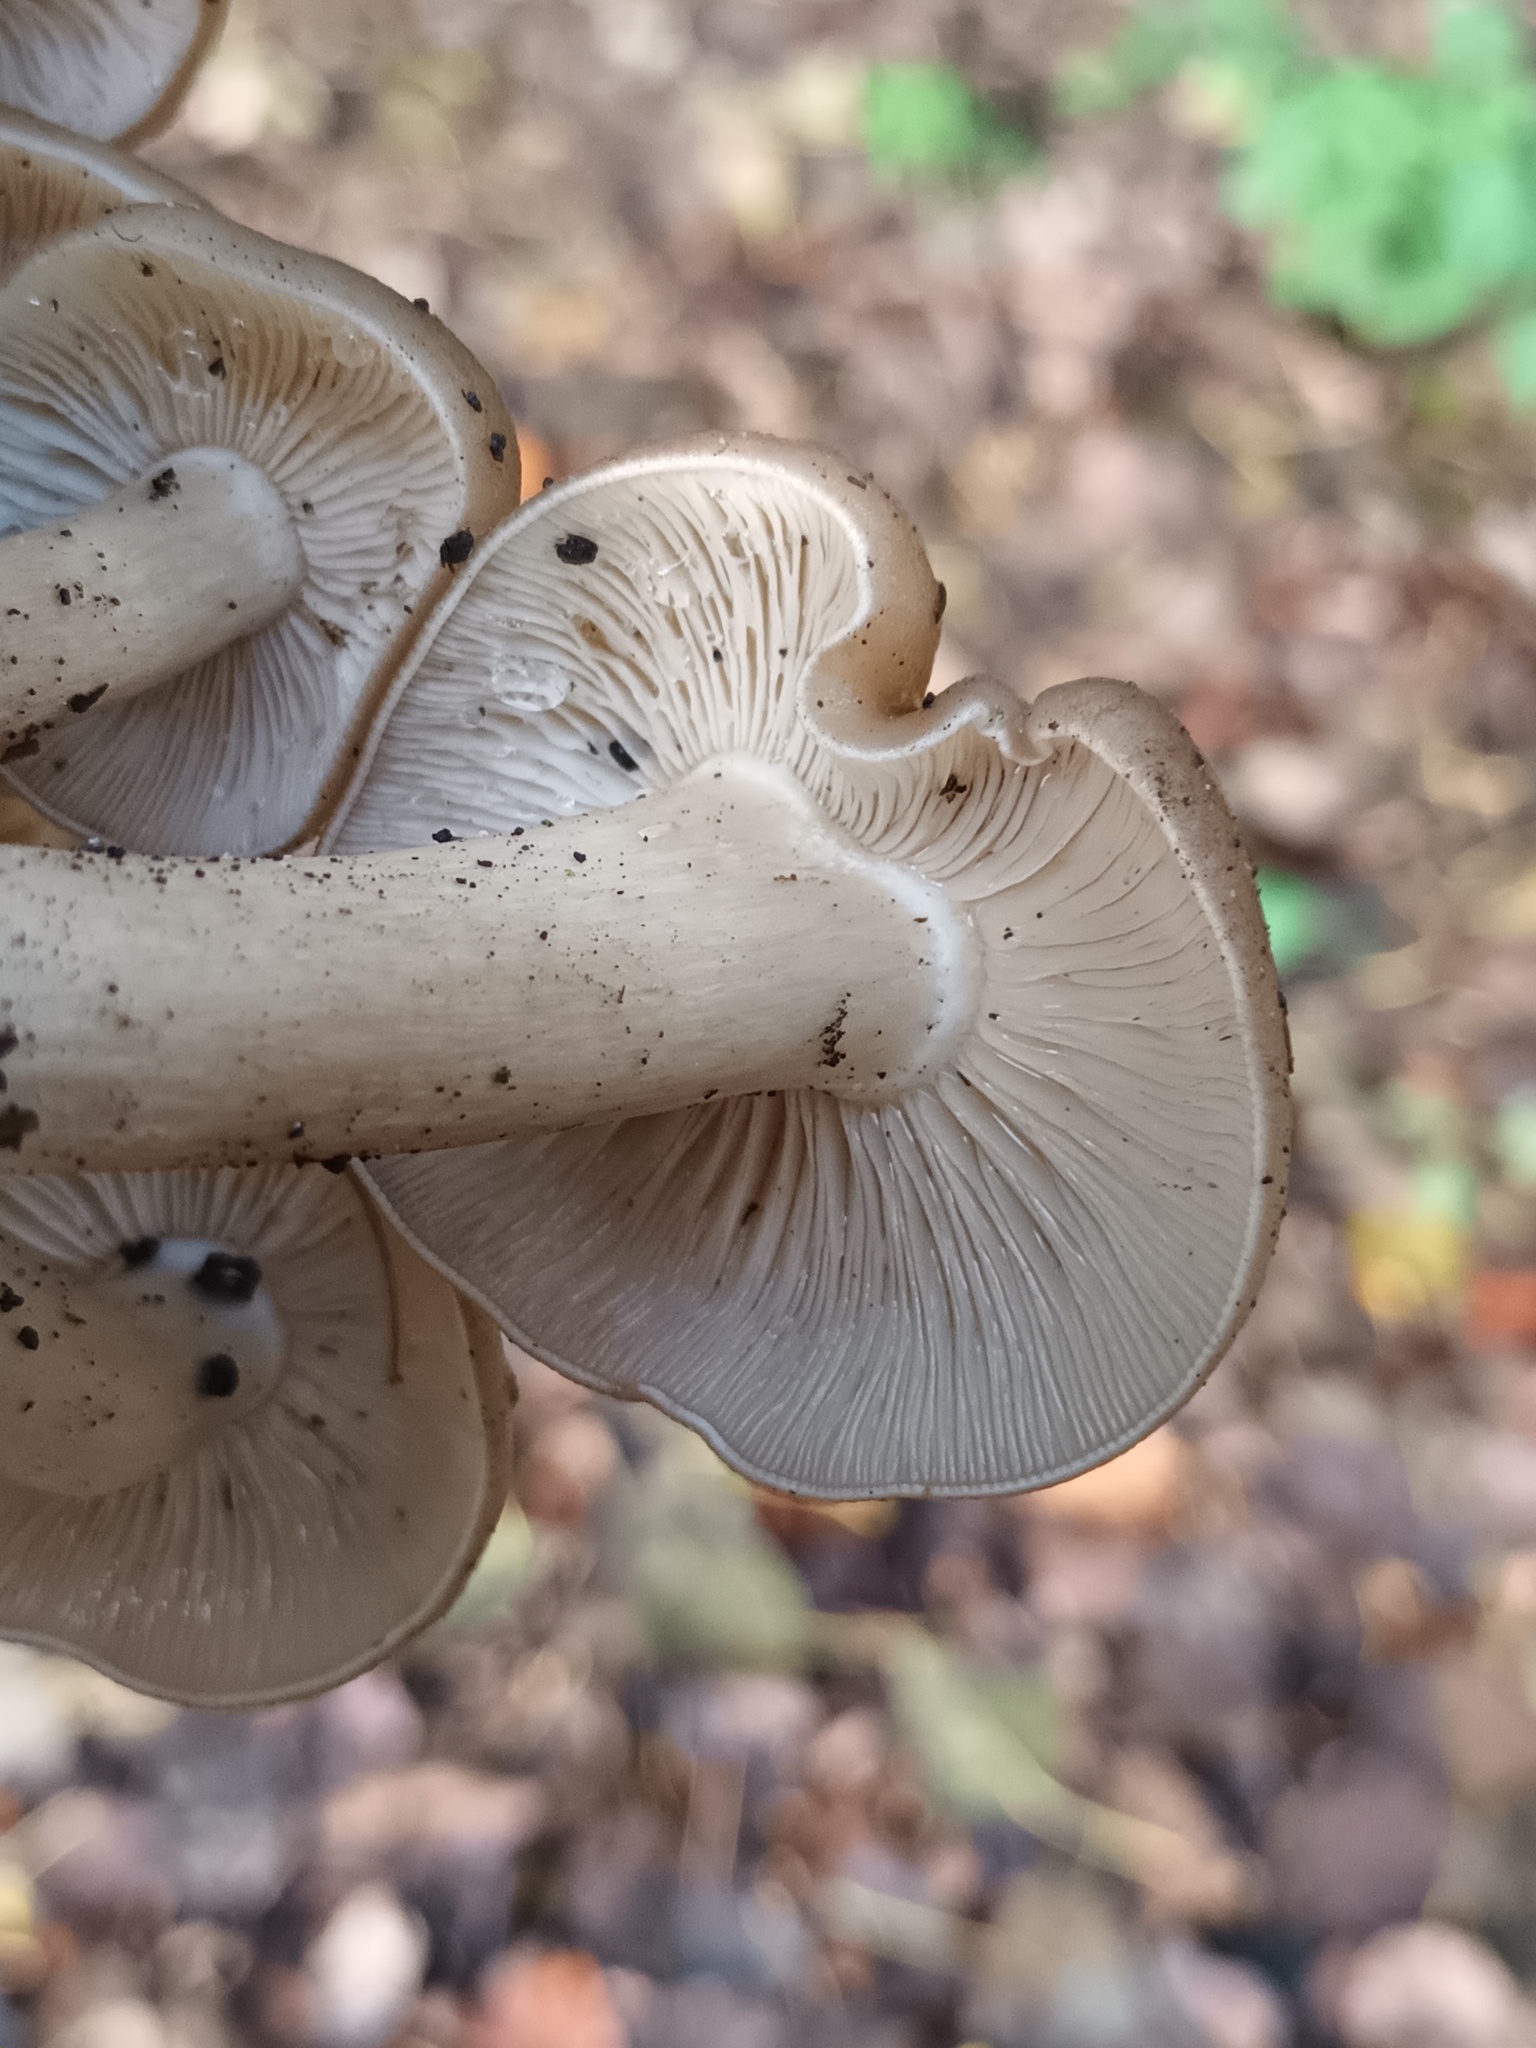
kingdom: Fungi
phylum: Basidiomycota
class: Agaricomycetes
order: Agaricales
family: Lyophyllaceae
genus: Lyophyllum
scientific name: Lyophyllum decastes
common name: Clustered domecap
